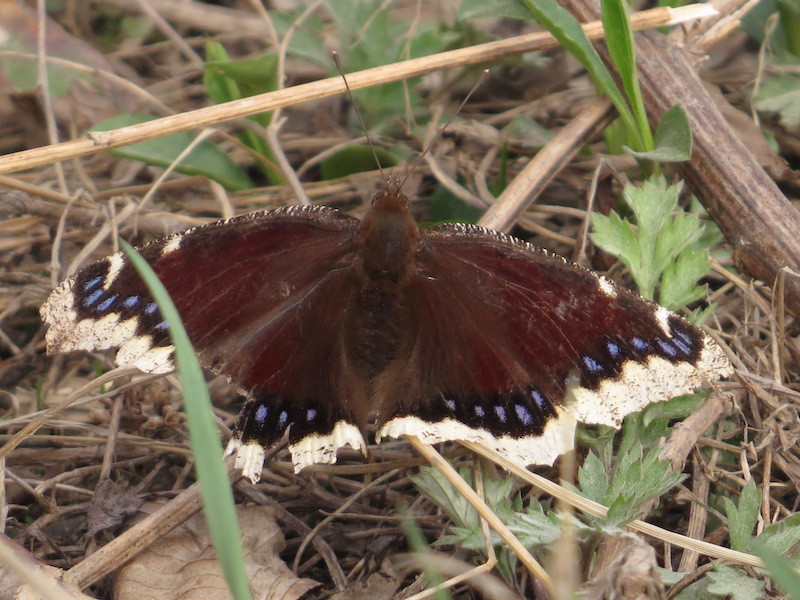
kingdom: Animalia
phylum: Arthropoda
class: Insecta
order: Lepidoptera
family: Nymphalidae
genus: Nymphalis
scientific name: Nymphalis antiopa
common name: Camberwell beauty
